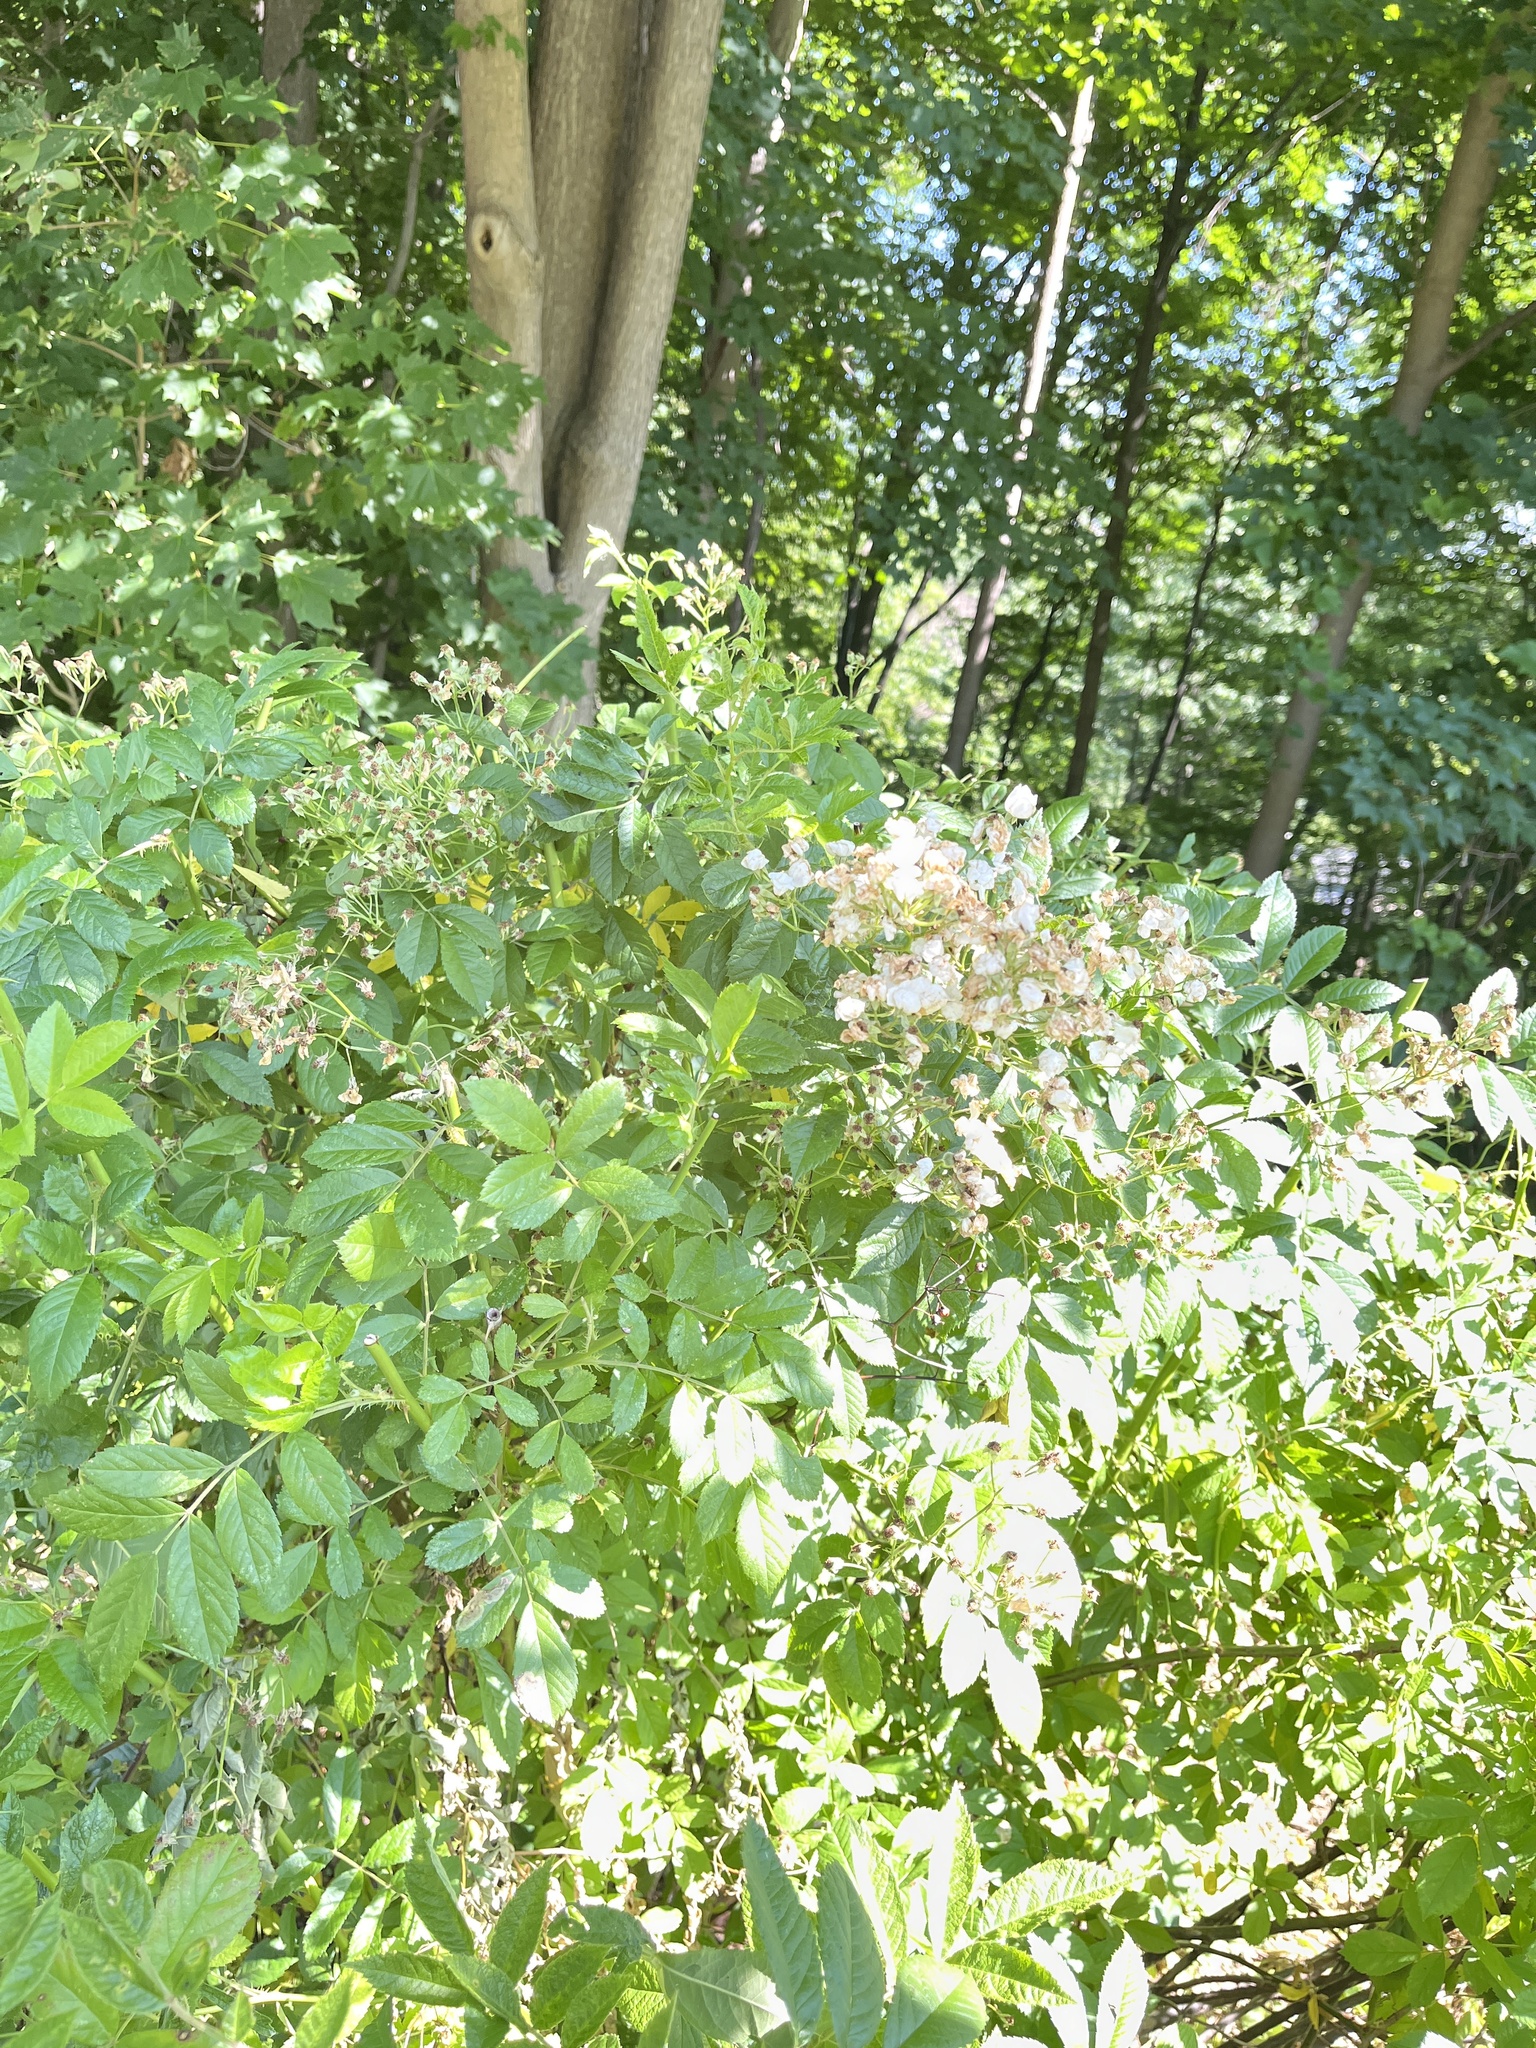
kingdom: Plantae
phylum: Tracheophyta
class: Magnoliopsida
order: Rosales
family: Rosaceae
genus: Rosa
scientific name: Rosa multiflora
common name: Multiflora rose
